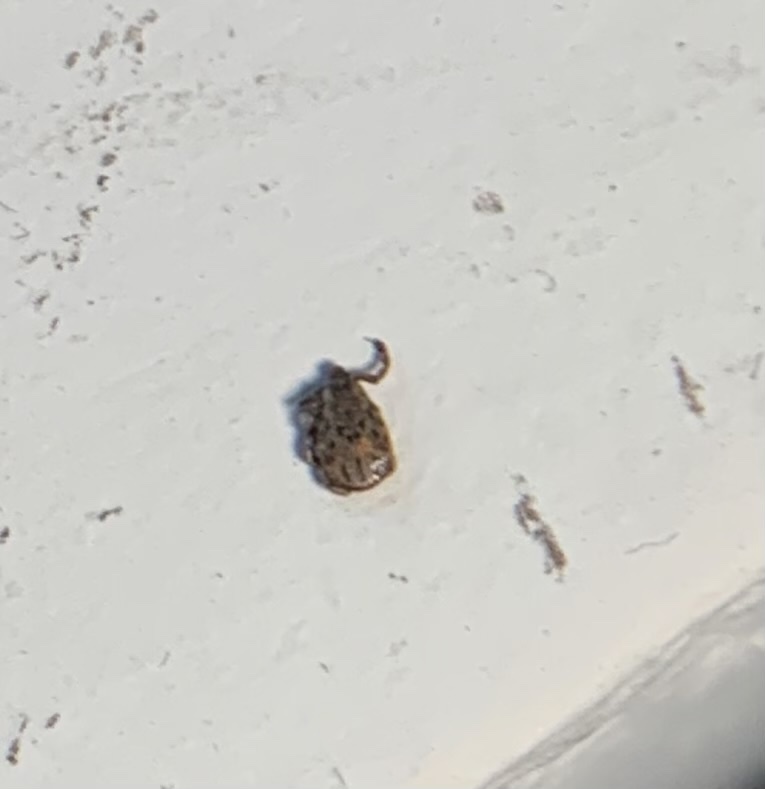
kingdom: Animalia
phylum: Arthropoda
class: Arachnida
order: Ixodida
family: Ixodidae
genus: Dermacentor
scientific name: Dermacentor occidentalis
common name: Net tick
